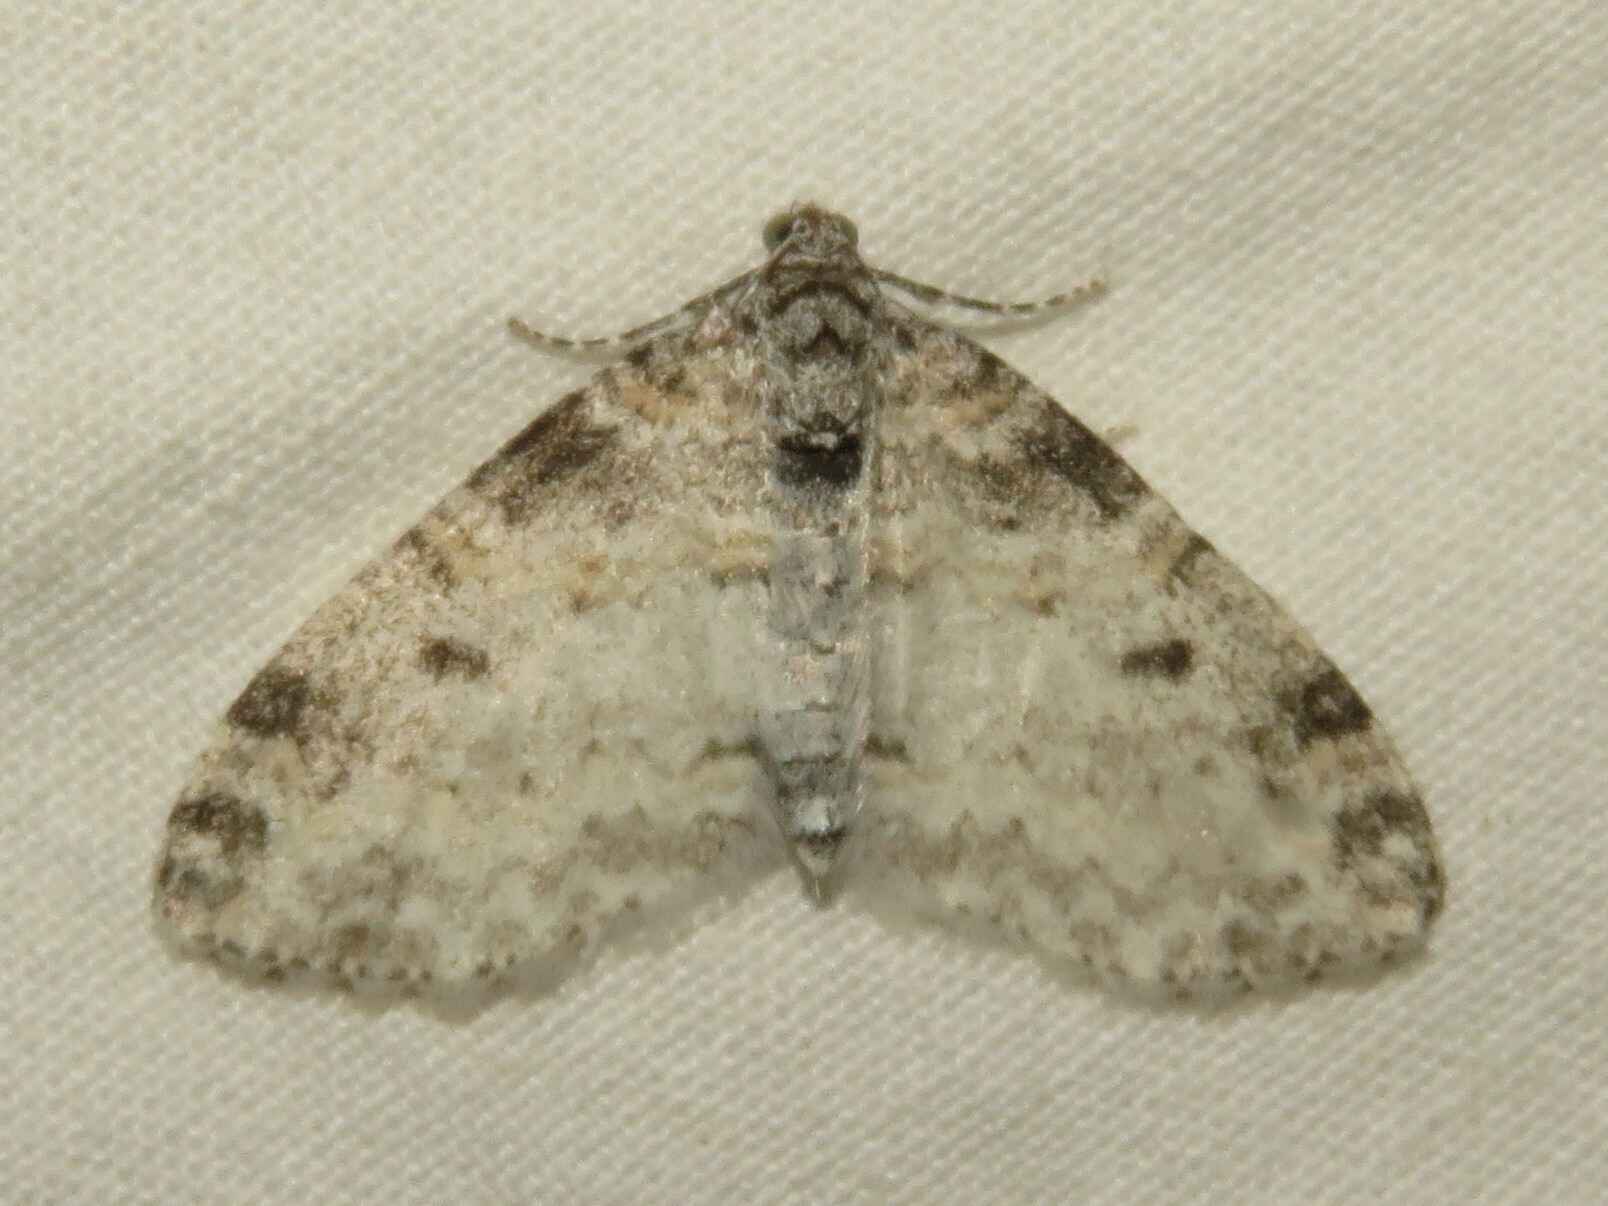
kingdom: Animalia
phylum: Arthropoda
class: Insecta
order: Lepidoptera
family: Geometridae
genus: Lobophora
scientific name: Lobophora nivigerata
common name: Powdered bigwing
